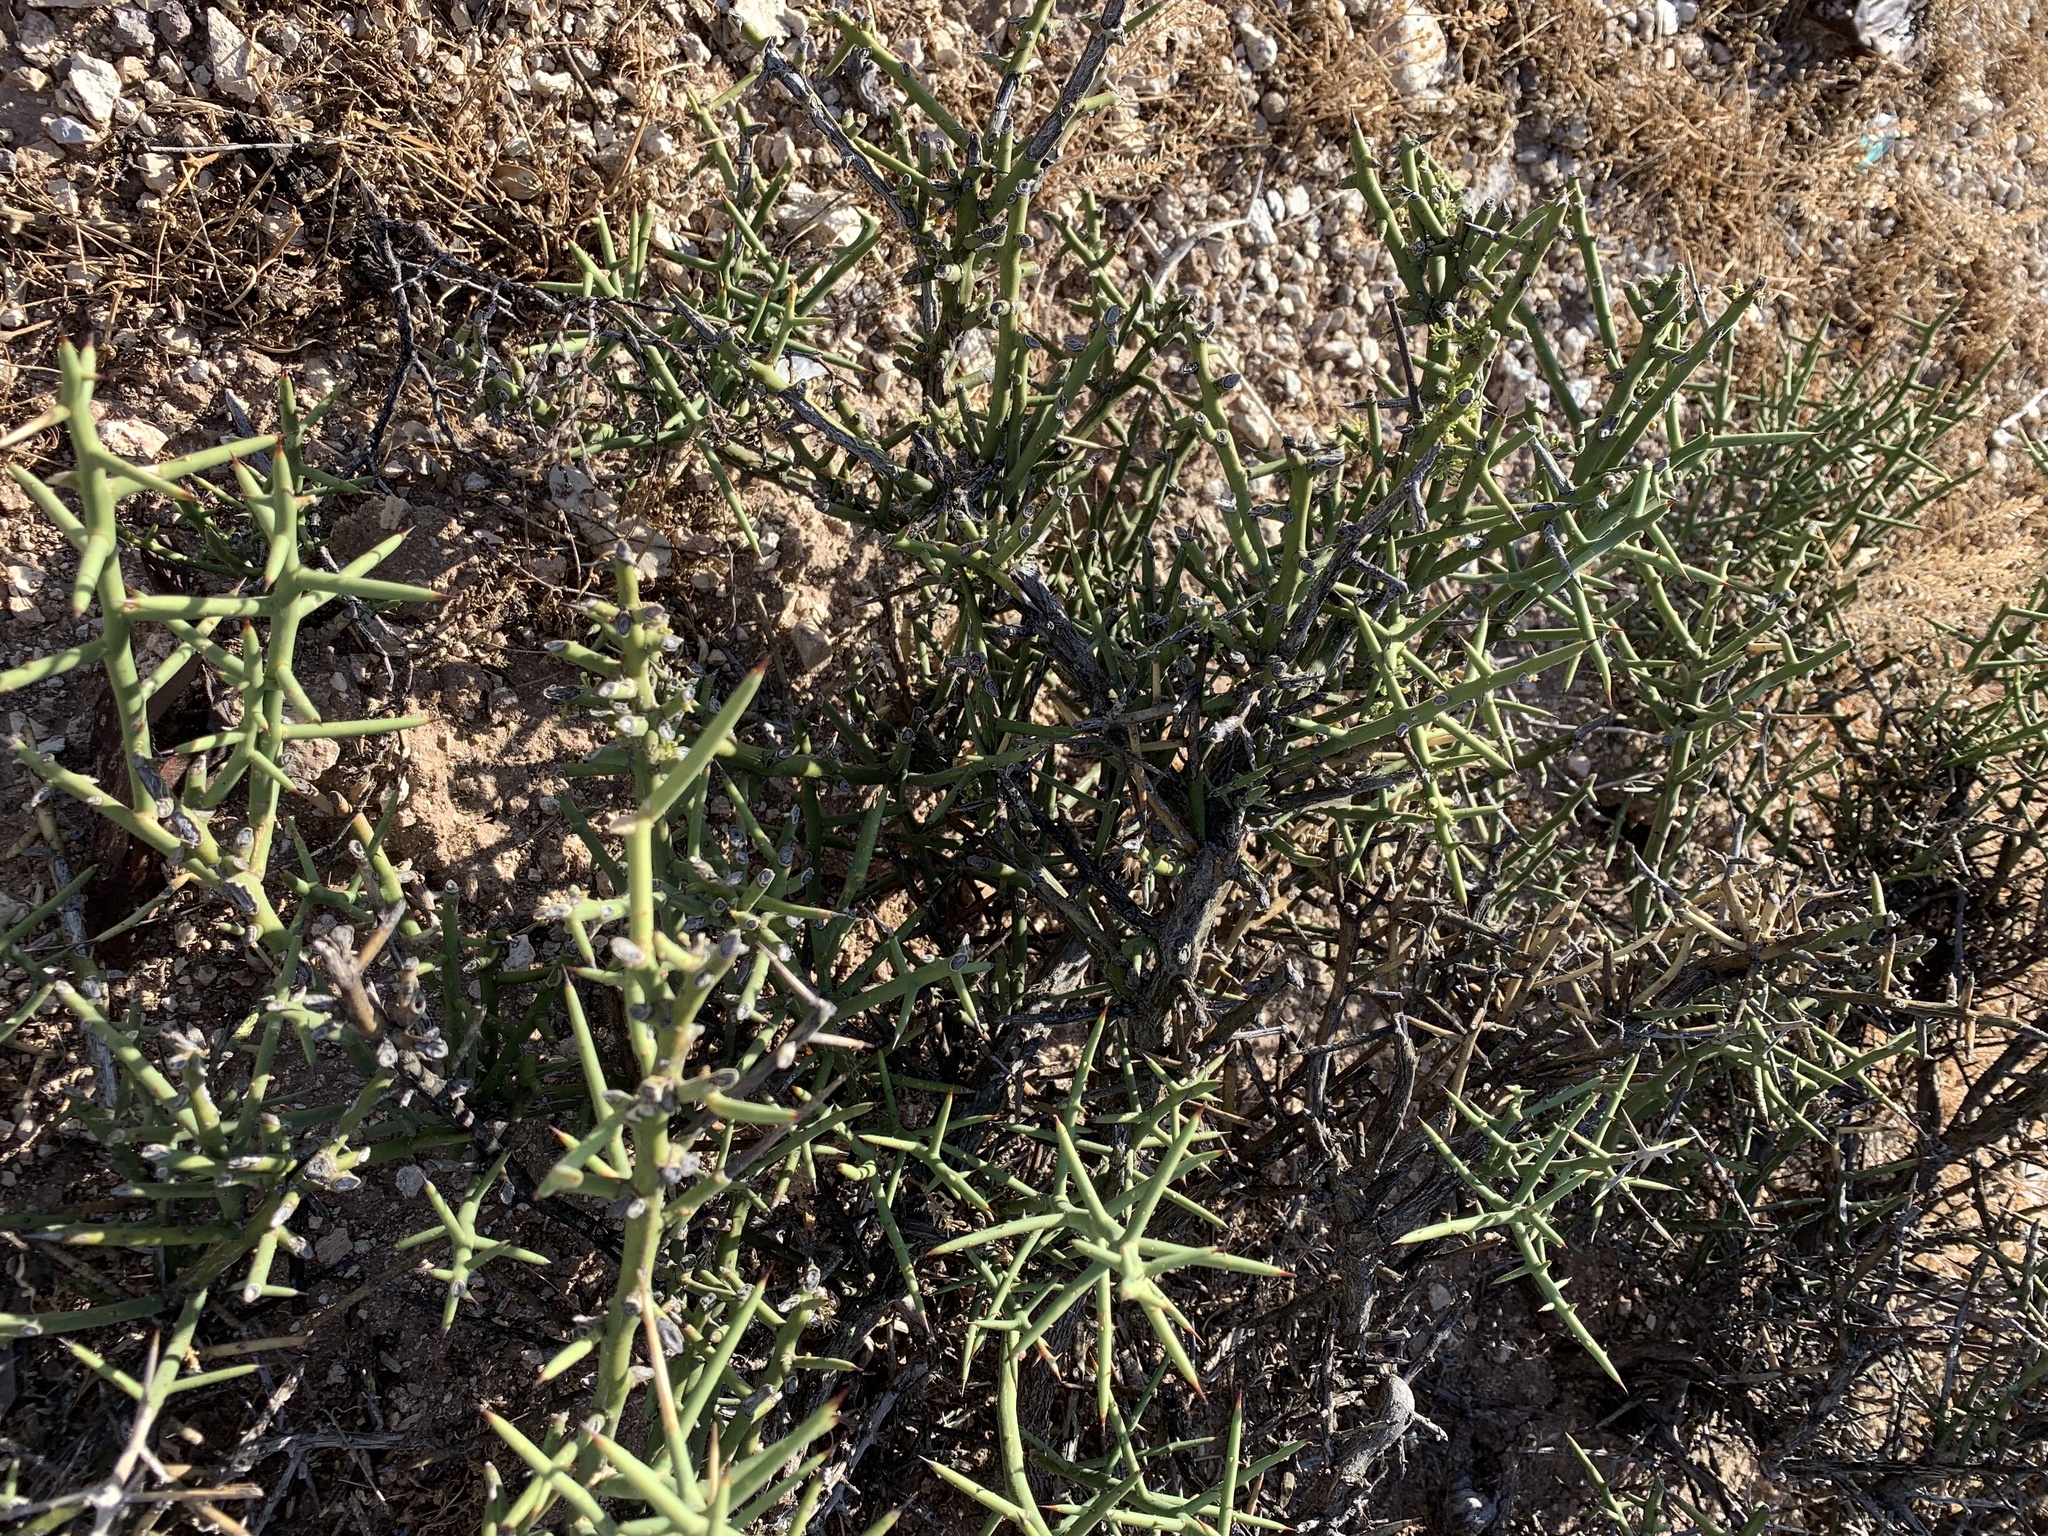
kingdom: Plantae
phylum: Tracheophyta
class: Magnoliopsida
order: Brassicales
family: Koeberliniaceae
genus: Koeberlinia
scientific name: Koeberlinia spinosa
